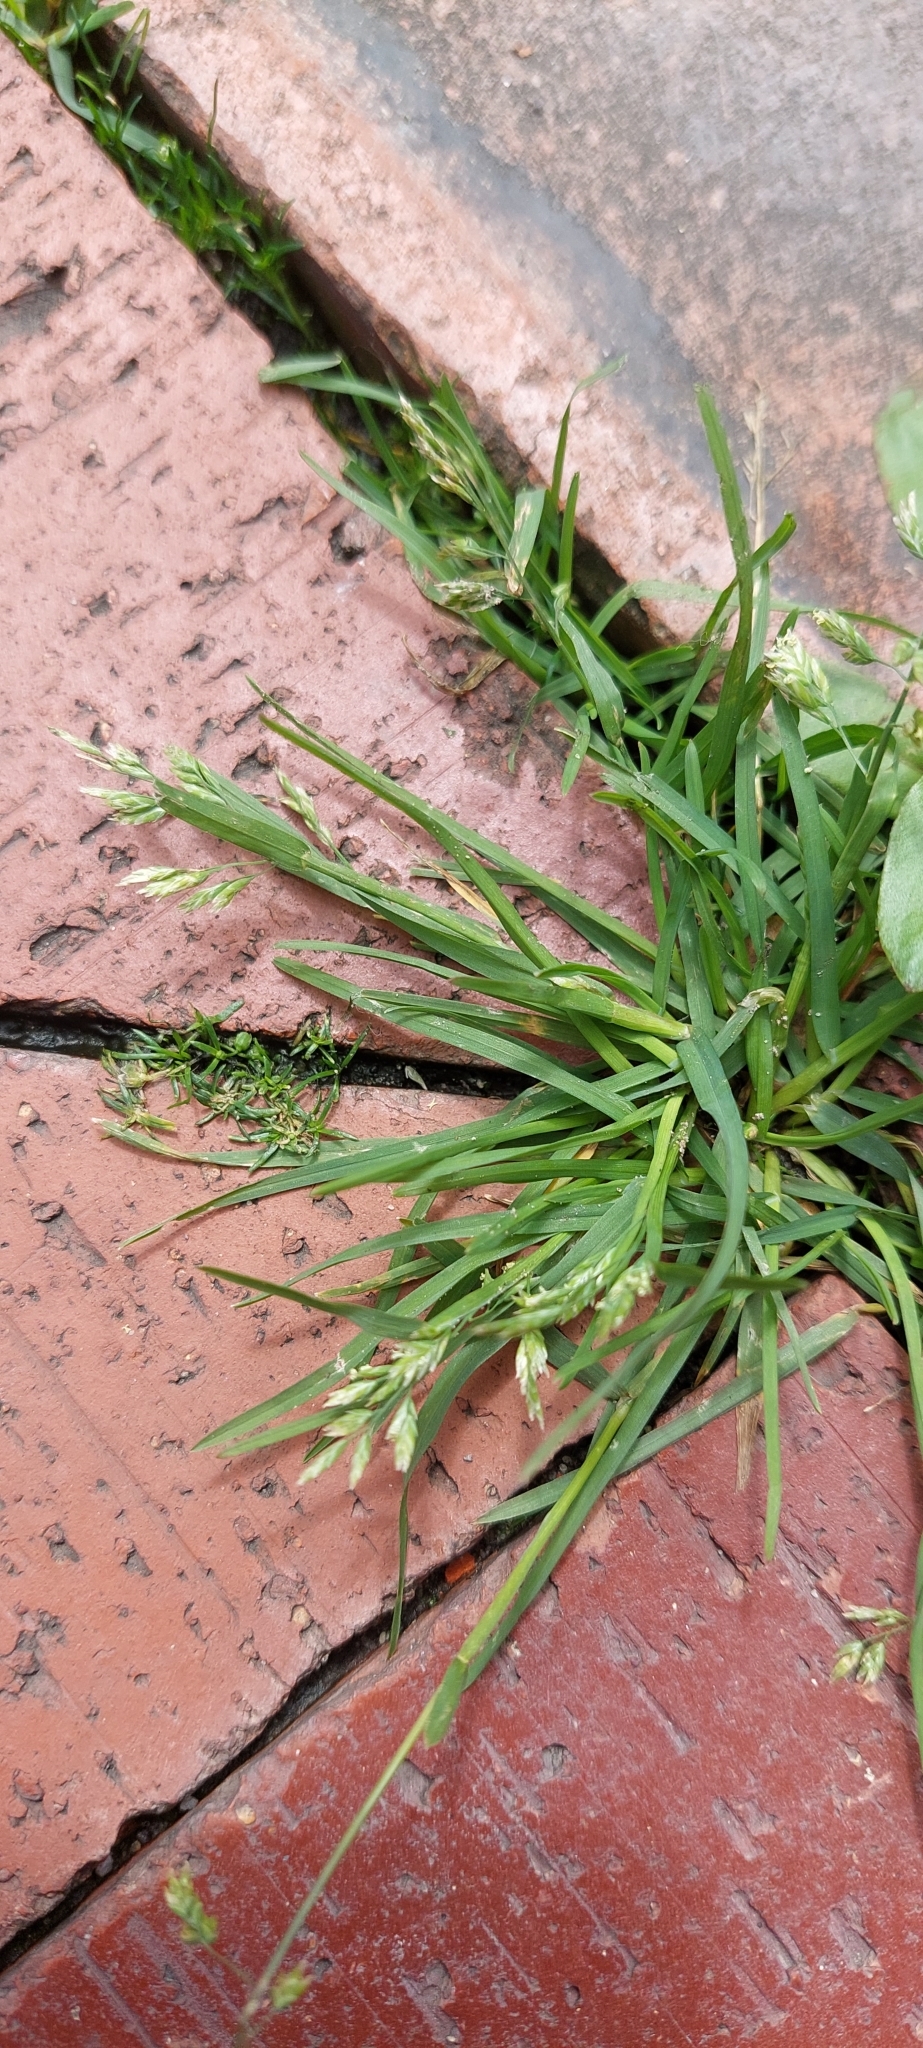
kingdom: Plantae
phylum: Tracheophyta
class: Liliopsida
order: Poales
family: Poaceae
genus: Poa
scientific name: Poa annua
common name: Annual bluegrass
